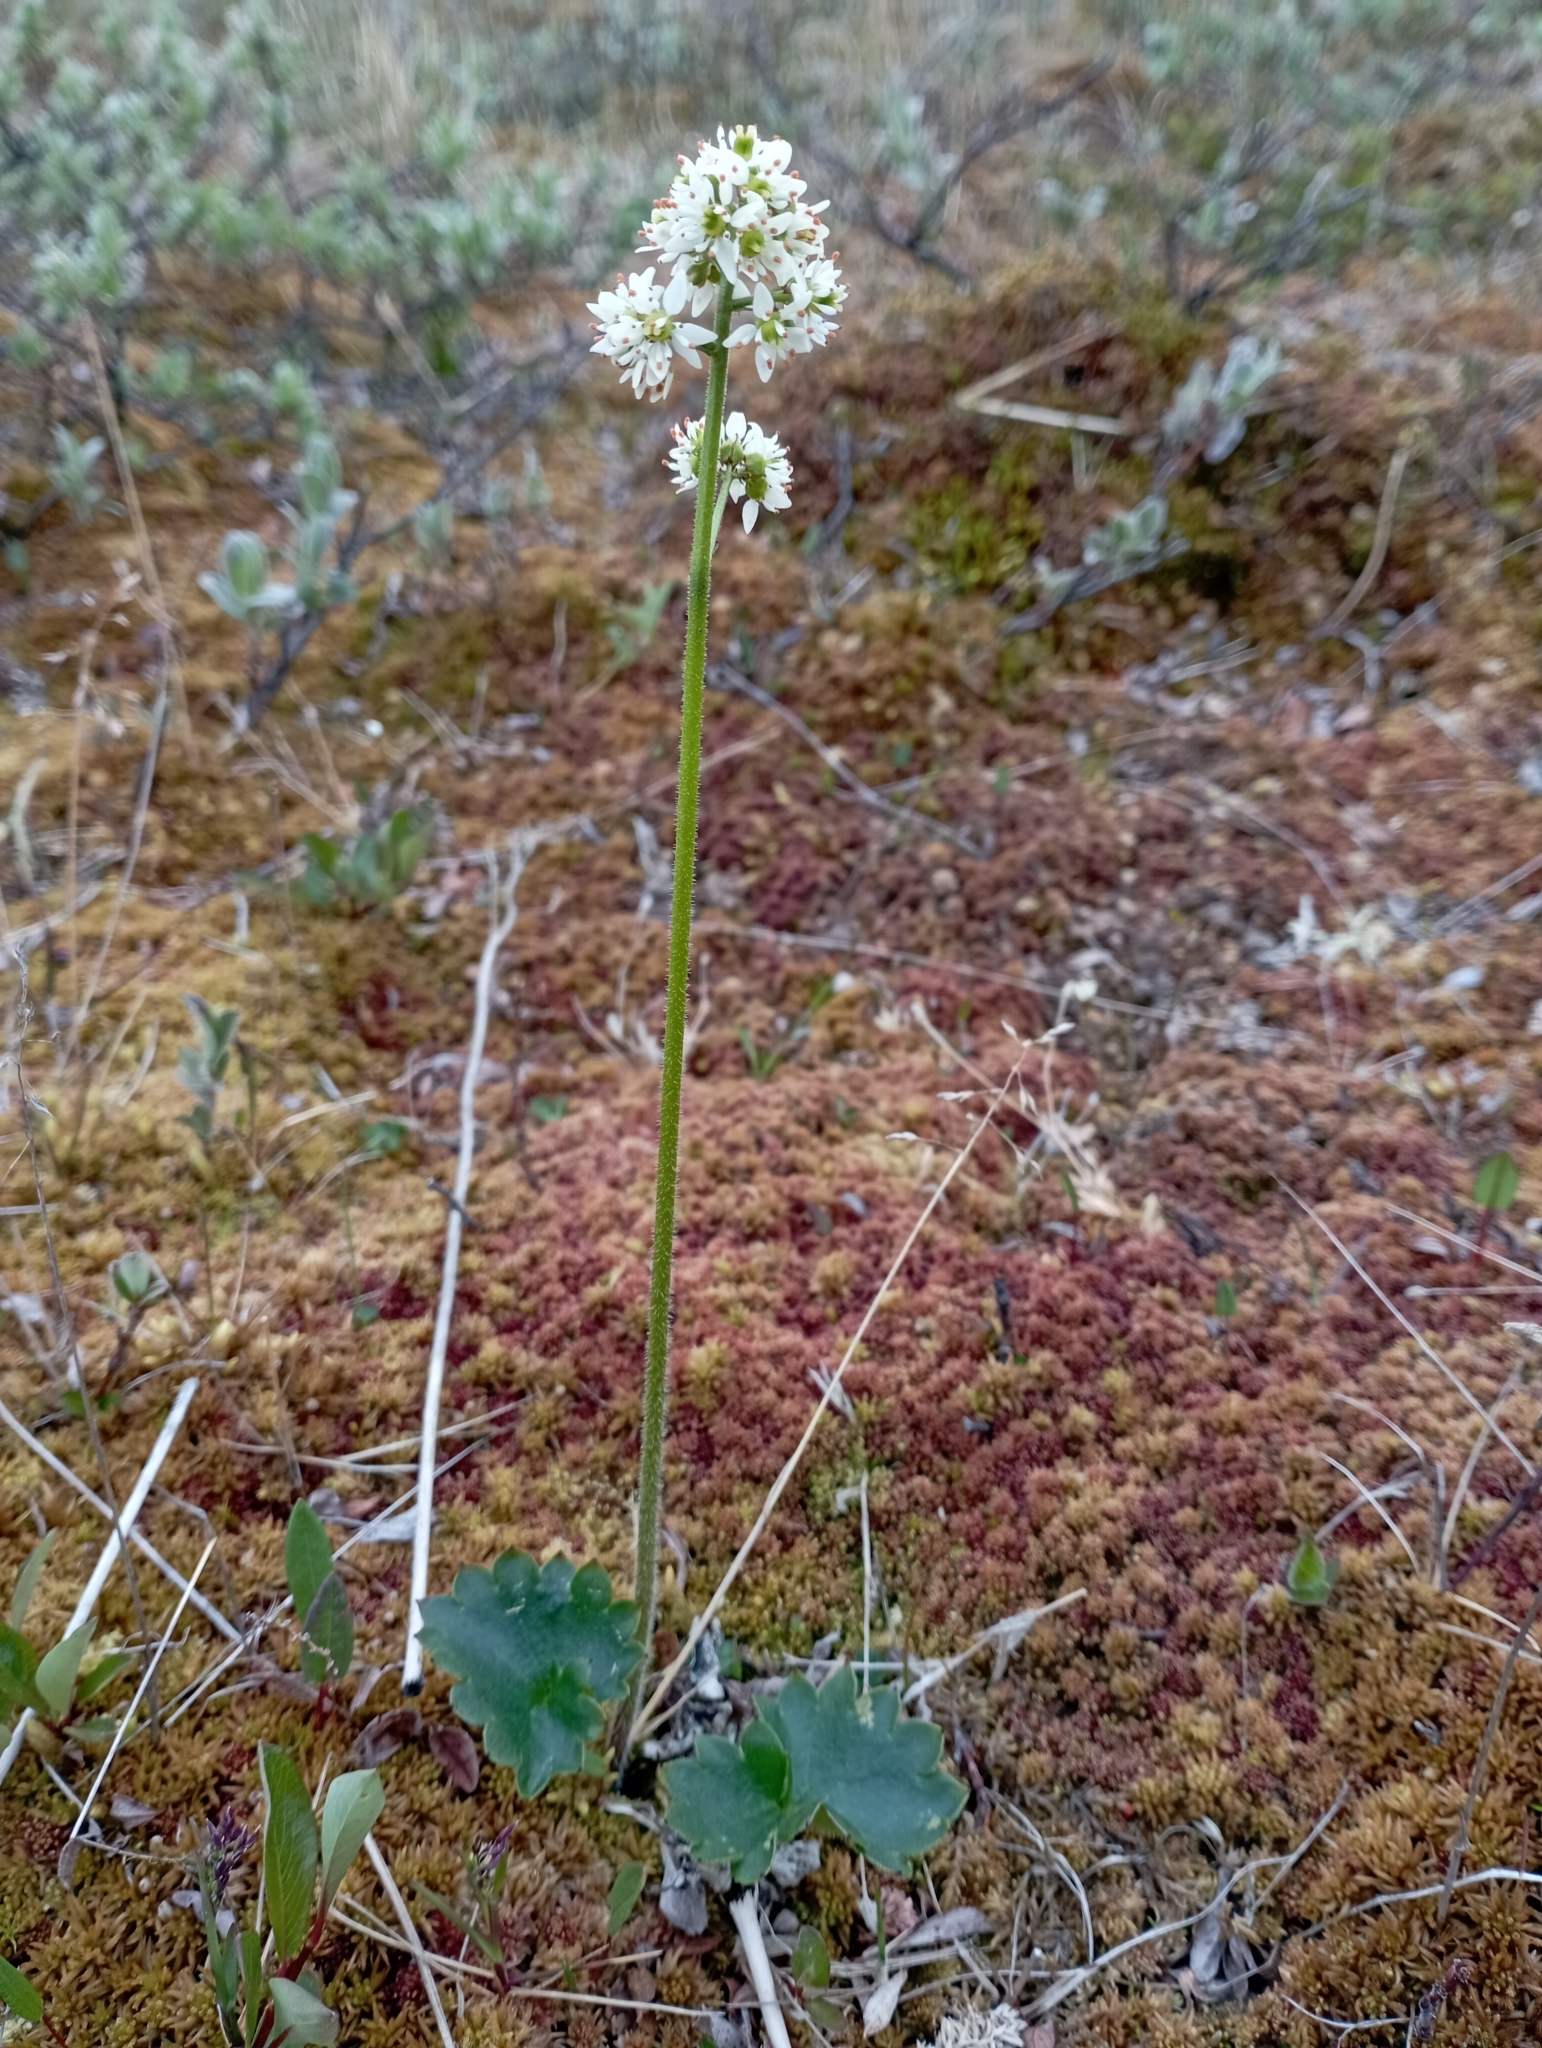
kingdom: Plantae
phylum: Tracheophyta
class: Magnoliopsida
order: Saxifragales
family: Saxifragaceae
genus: Micranthes
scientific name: Micranthes nelsoniana
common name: Nelson's saxifrage
